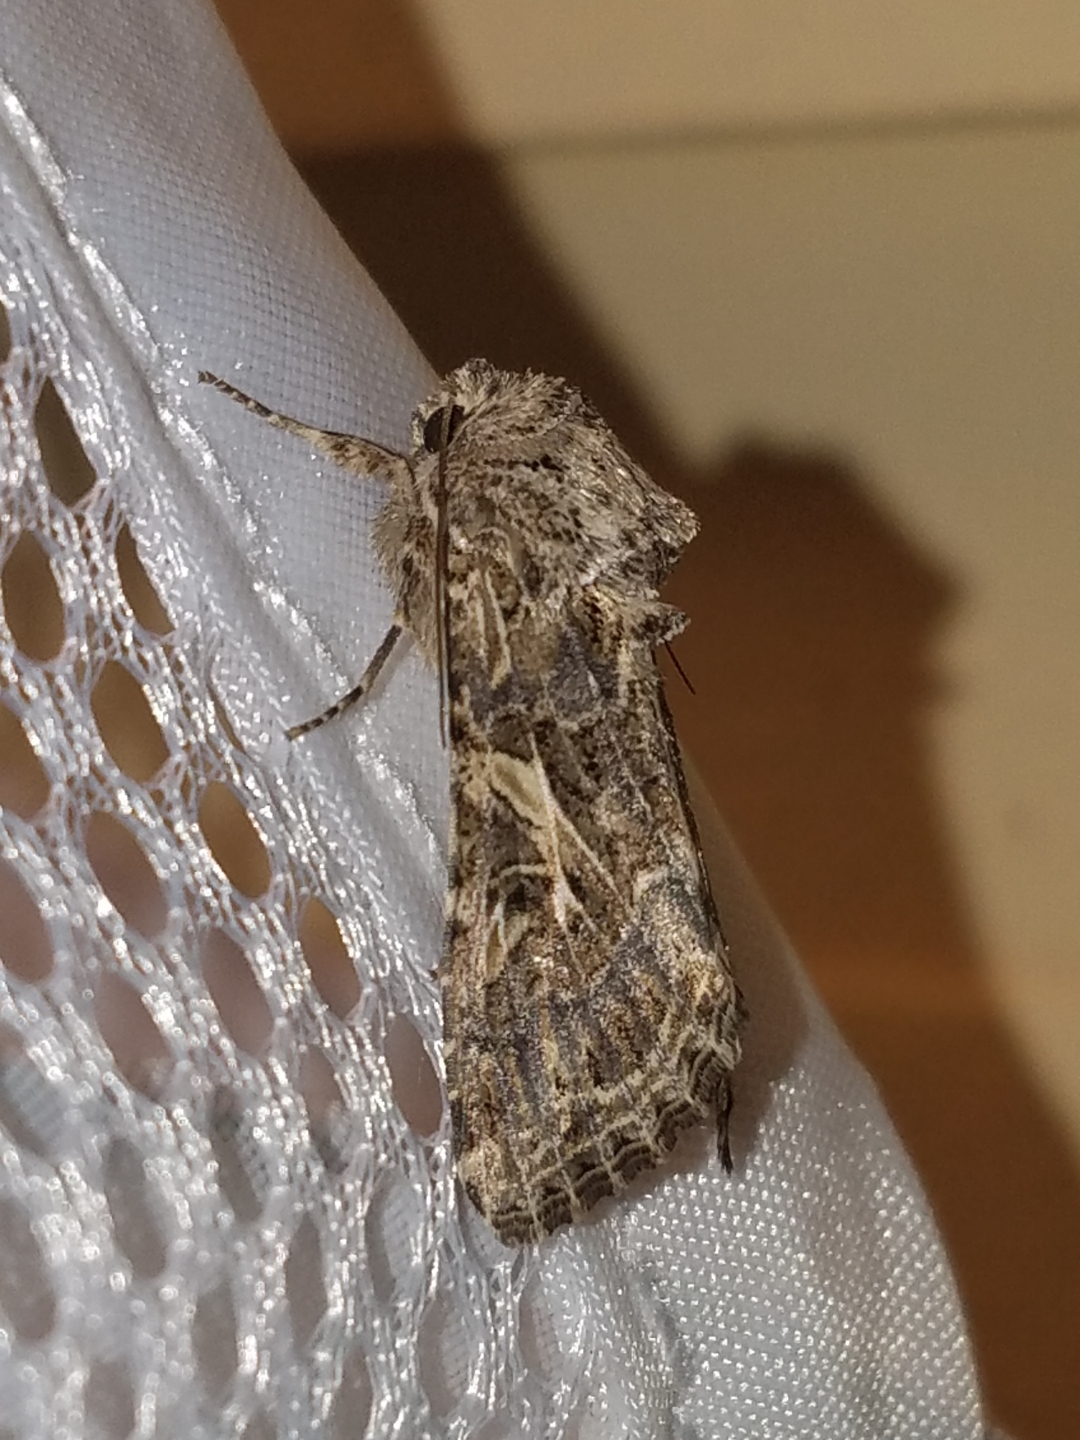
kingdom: Animalia
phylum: Arthropoda
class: Insecta
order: Lepidoptera
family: Noctuidae
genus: Spodoptera
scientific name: Spodoptera praefica
